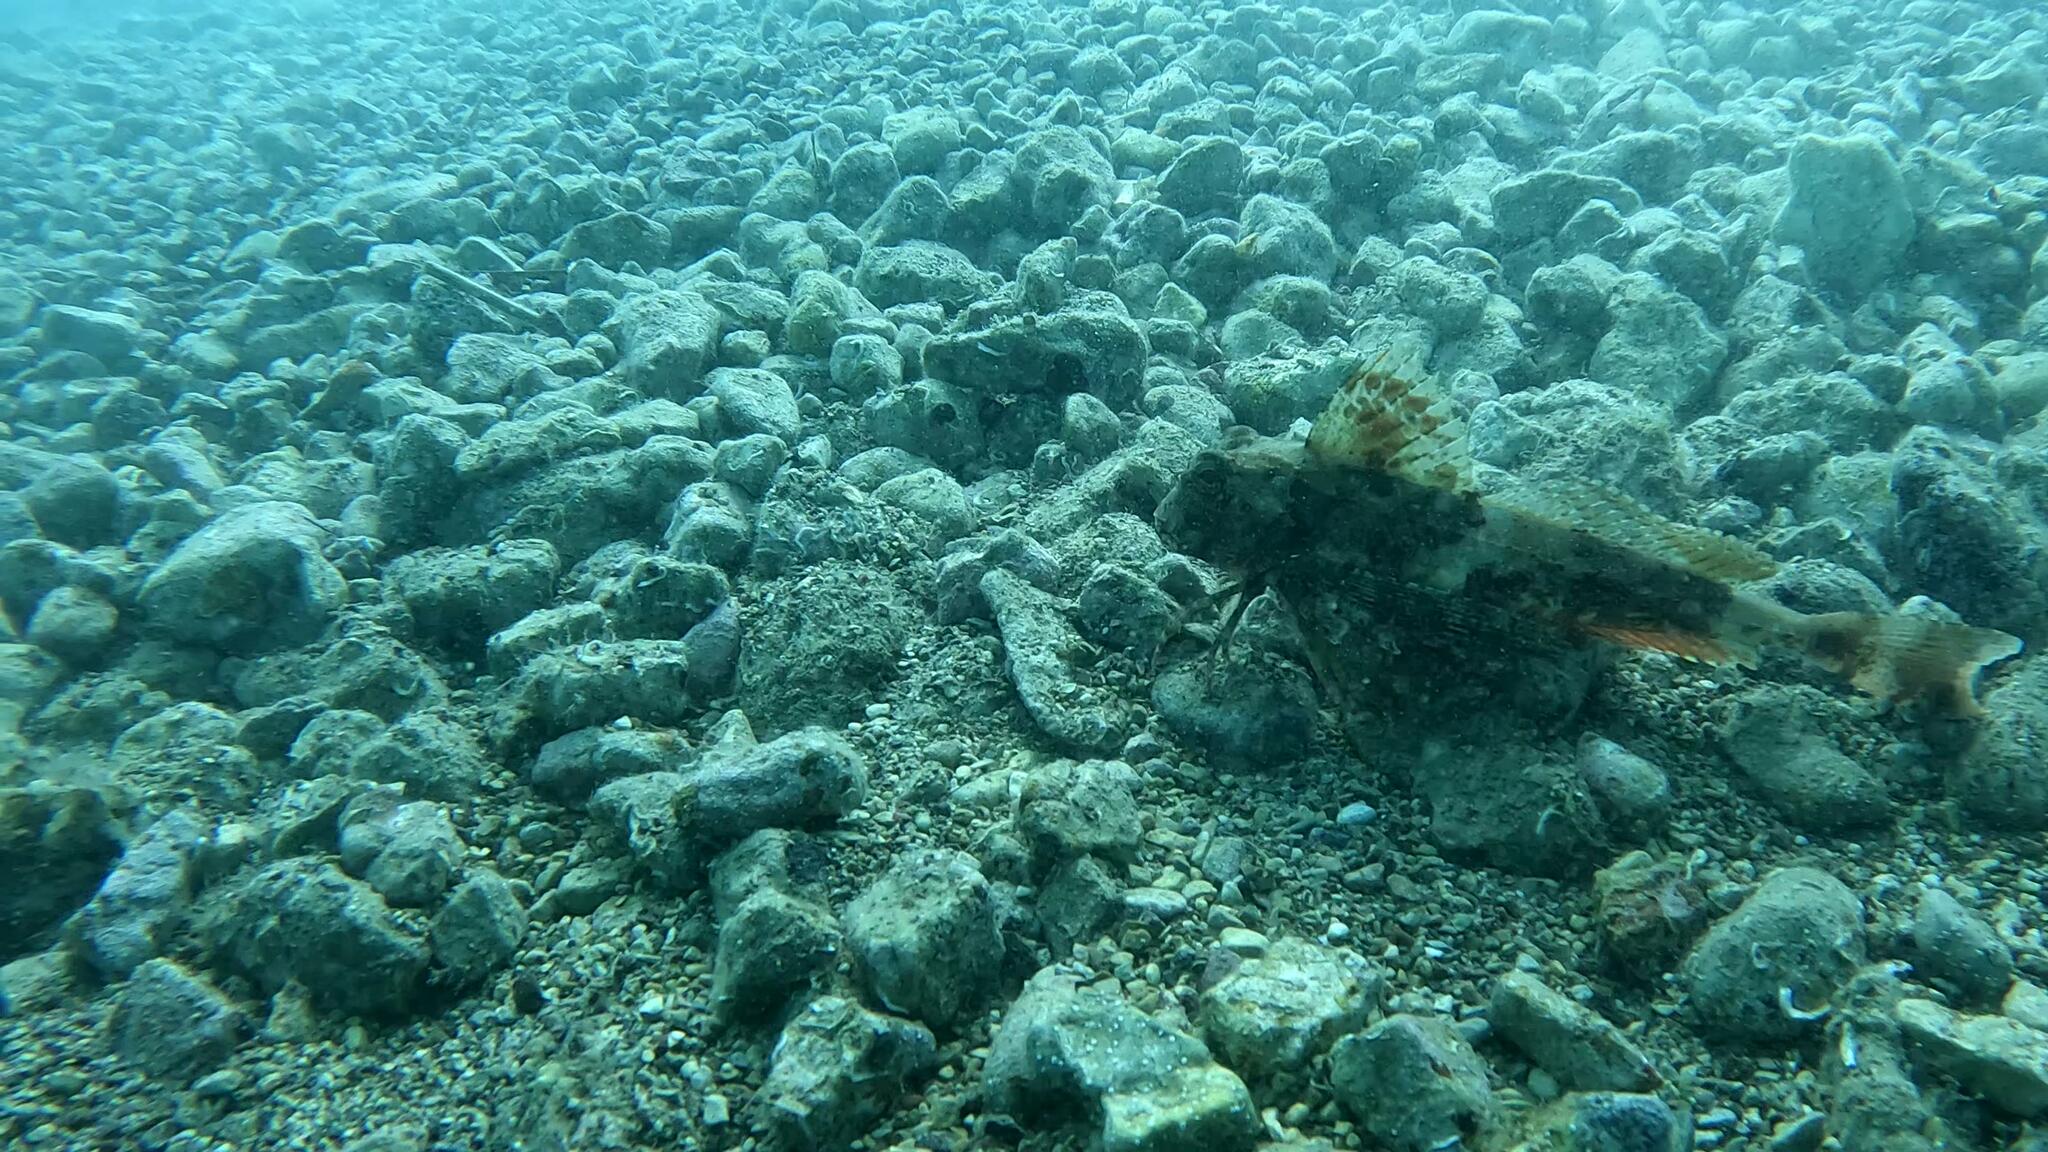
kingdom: Animalia
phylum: Chordata
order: Scorpaeniformes
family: Triglidae
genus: Chelidonichthys
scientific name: Chelidonichthys lastoviza
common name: Streaked gurnard
